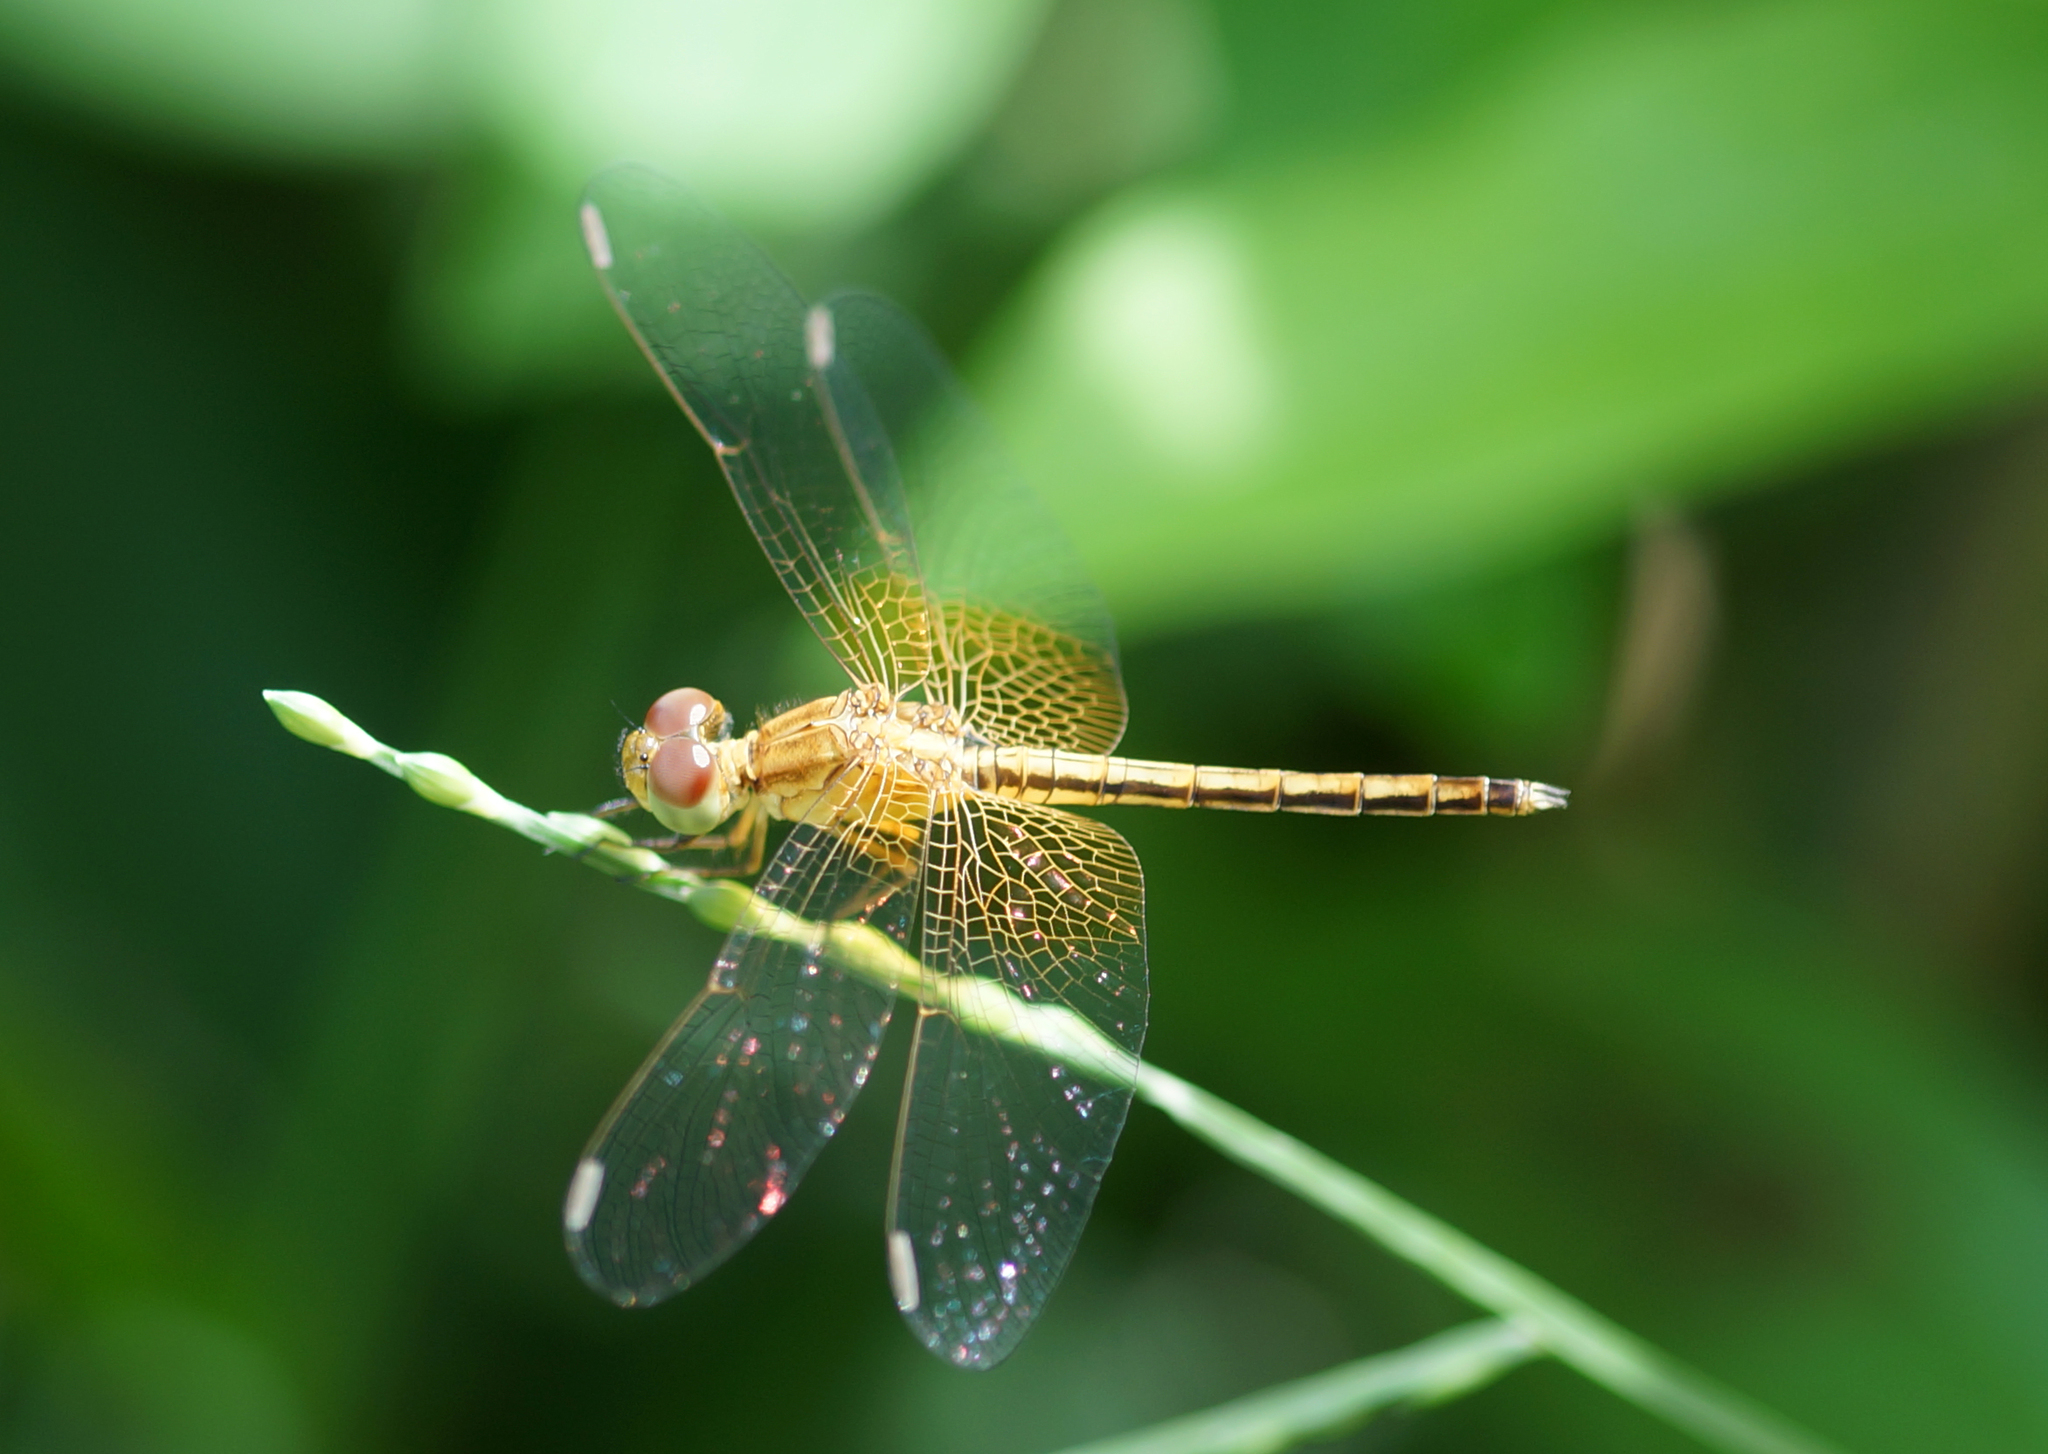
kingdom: Animalia
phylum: Arthropoda
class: Insecta
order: Odonata
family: Libellulidae
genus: Neurothemis
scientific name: Neurothemis intermedia
